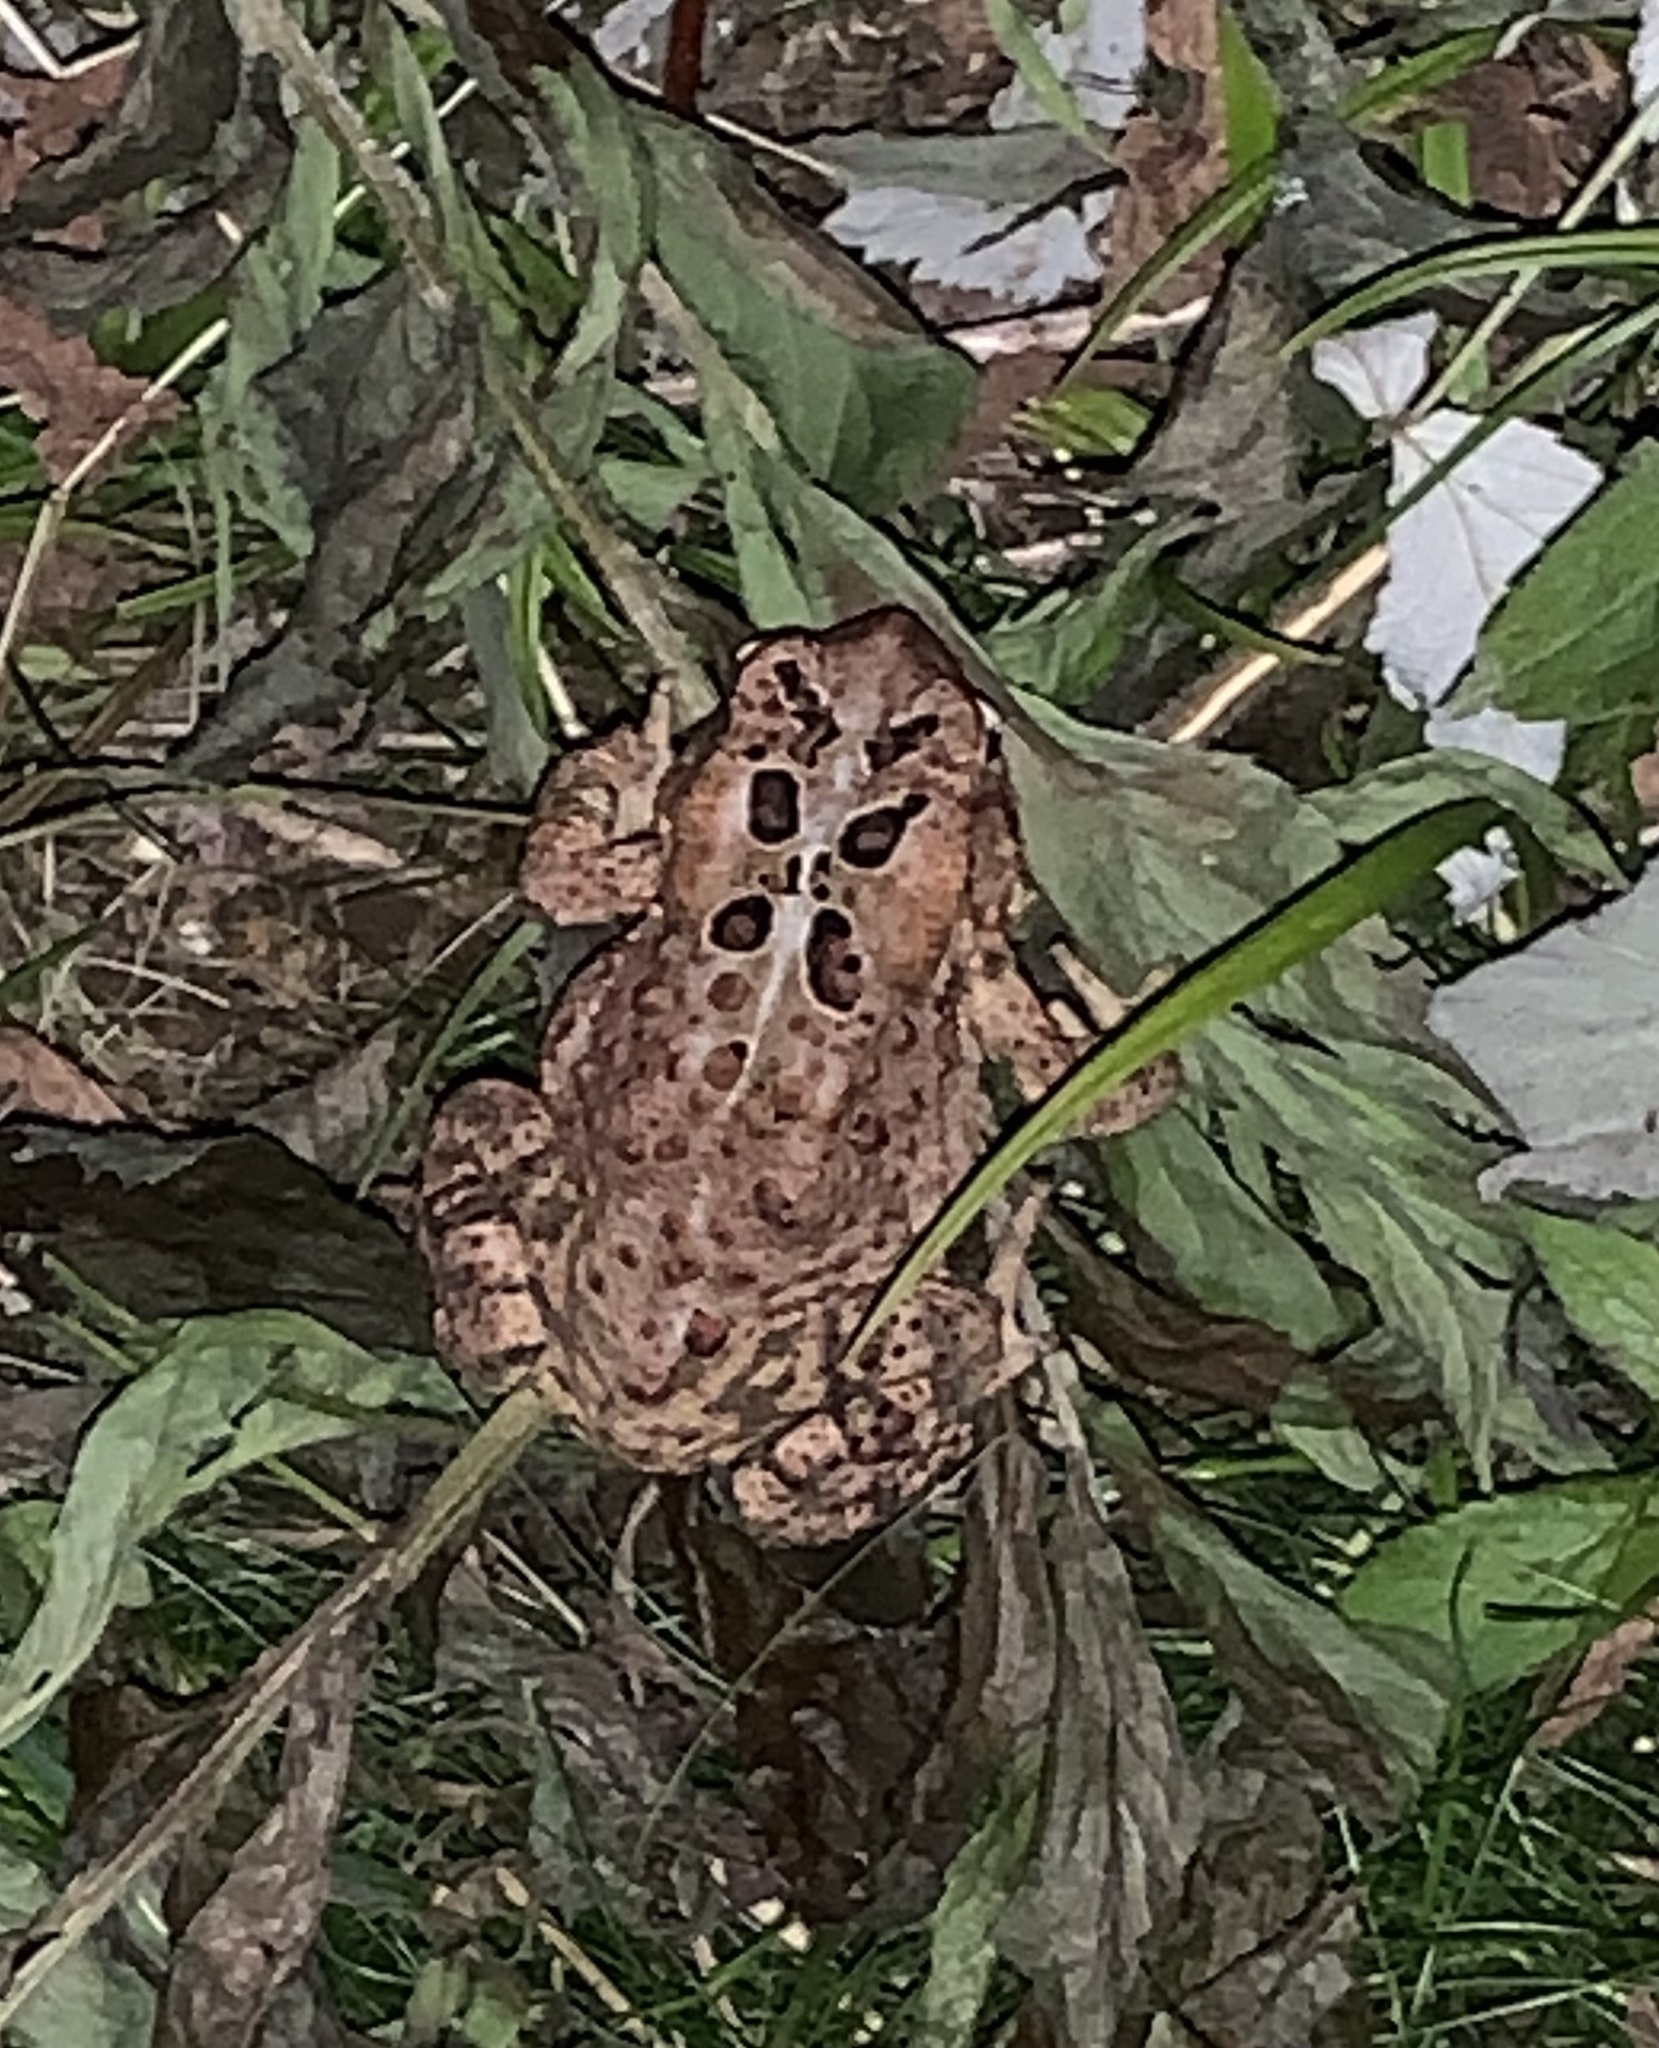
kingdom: Animalia
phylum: Chordata
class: Amphibia
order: Anura
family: Bufonidae
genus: Anaxyrus
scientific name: Anaxyrus americanus
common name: American toad
